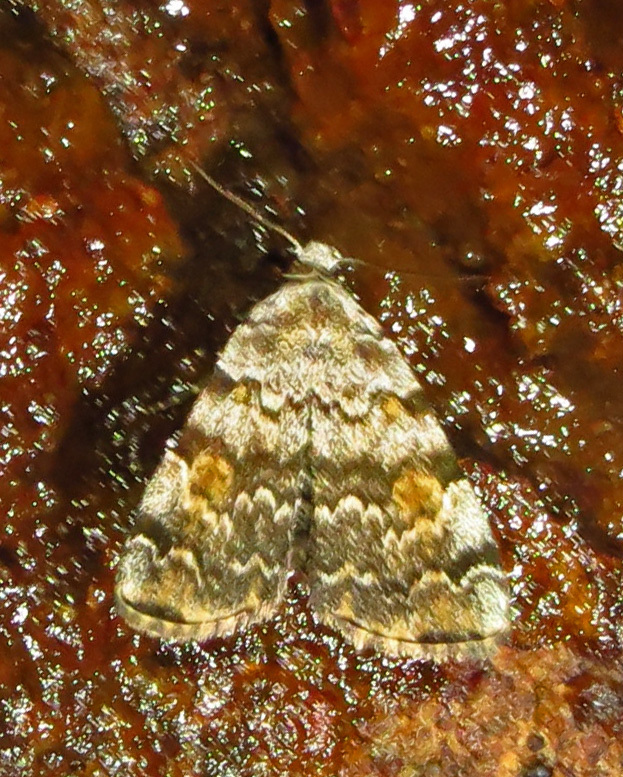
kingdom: Animalia
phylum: Arthropoda
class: Insecta
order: Lepidoptera
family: Erebidae
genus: Idia
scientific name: Idia americalis
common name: American idia moth
